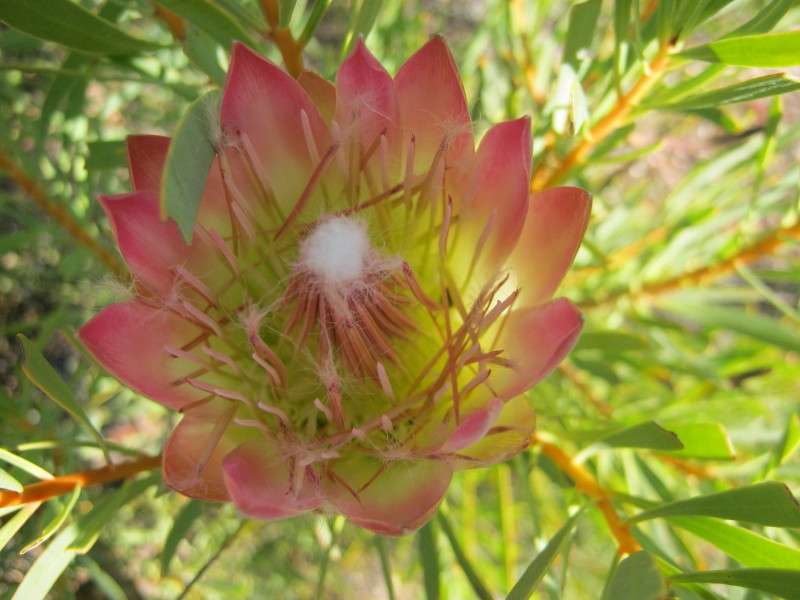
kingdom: Plantae
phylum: Tracheophyta
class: Magnoliopsida
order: Proteales
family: Proteaceae
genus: Protea
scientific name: Protea repens
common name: Sugarbush
